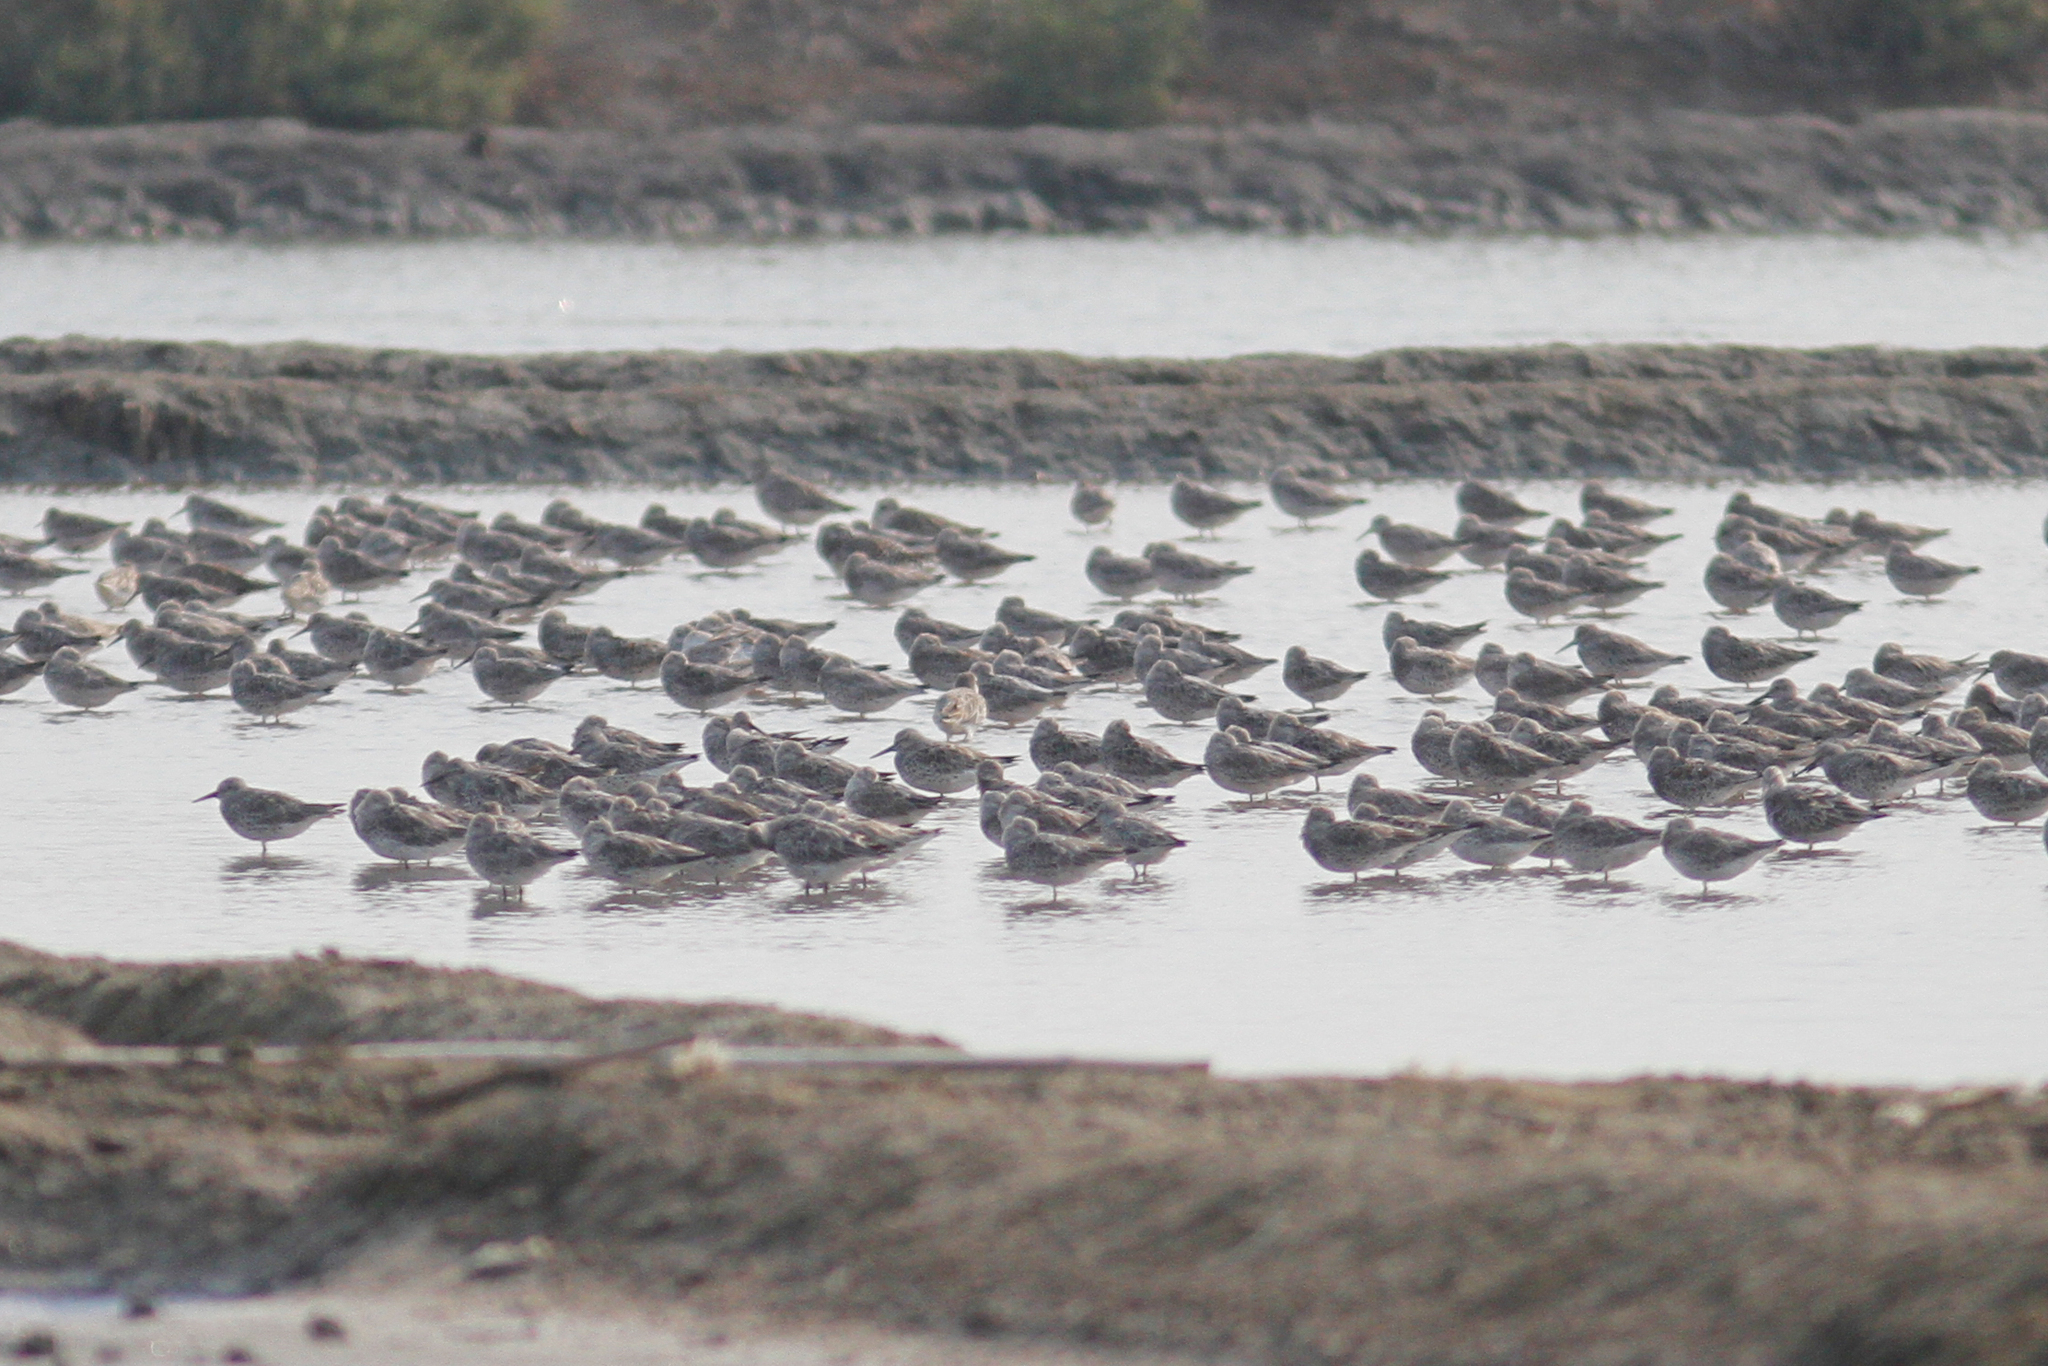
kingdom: Animalia
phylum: Chordata
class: Aves
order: Charadriiformes
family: Scolopacidae
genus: Calidris
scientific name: Calidris tenuirostris
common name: Great knot
